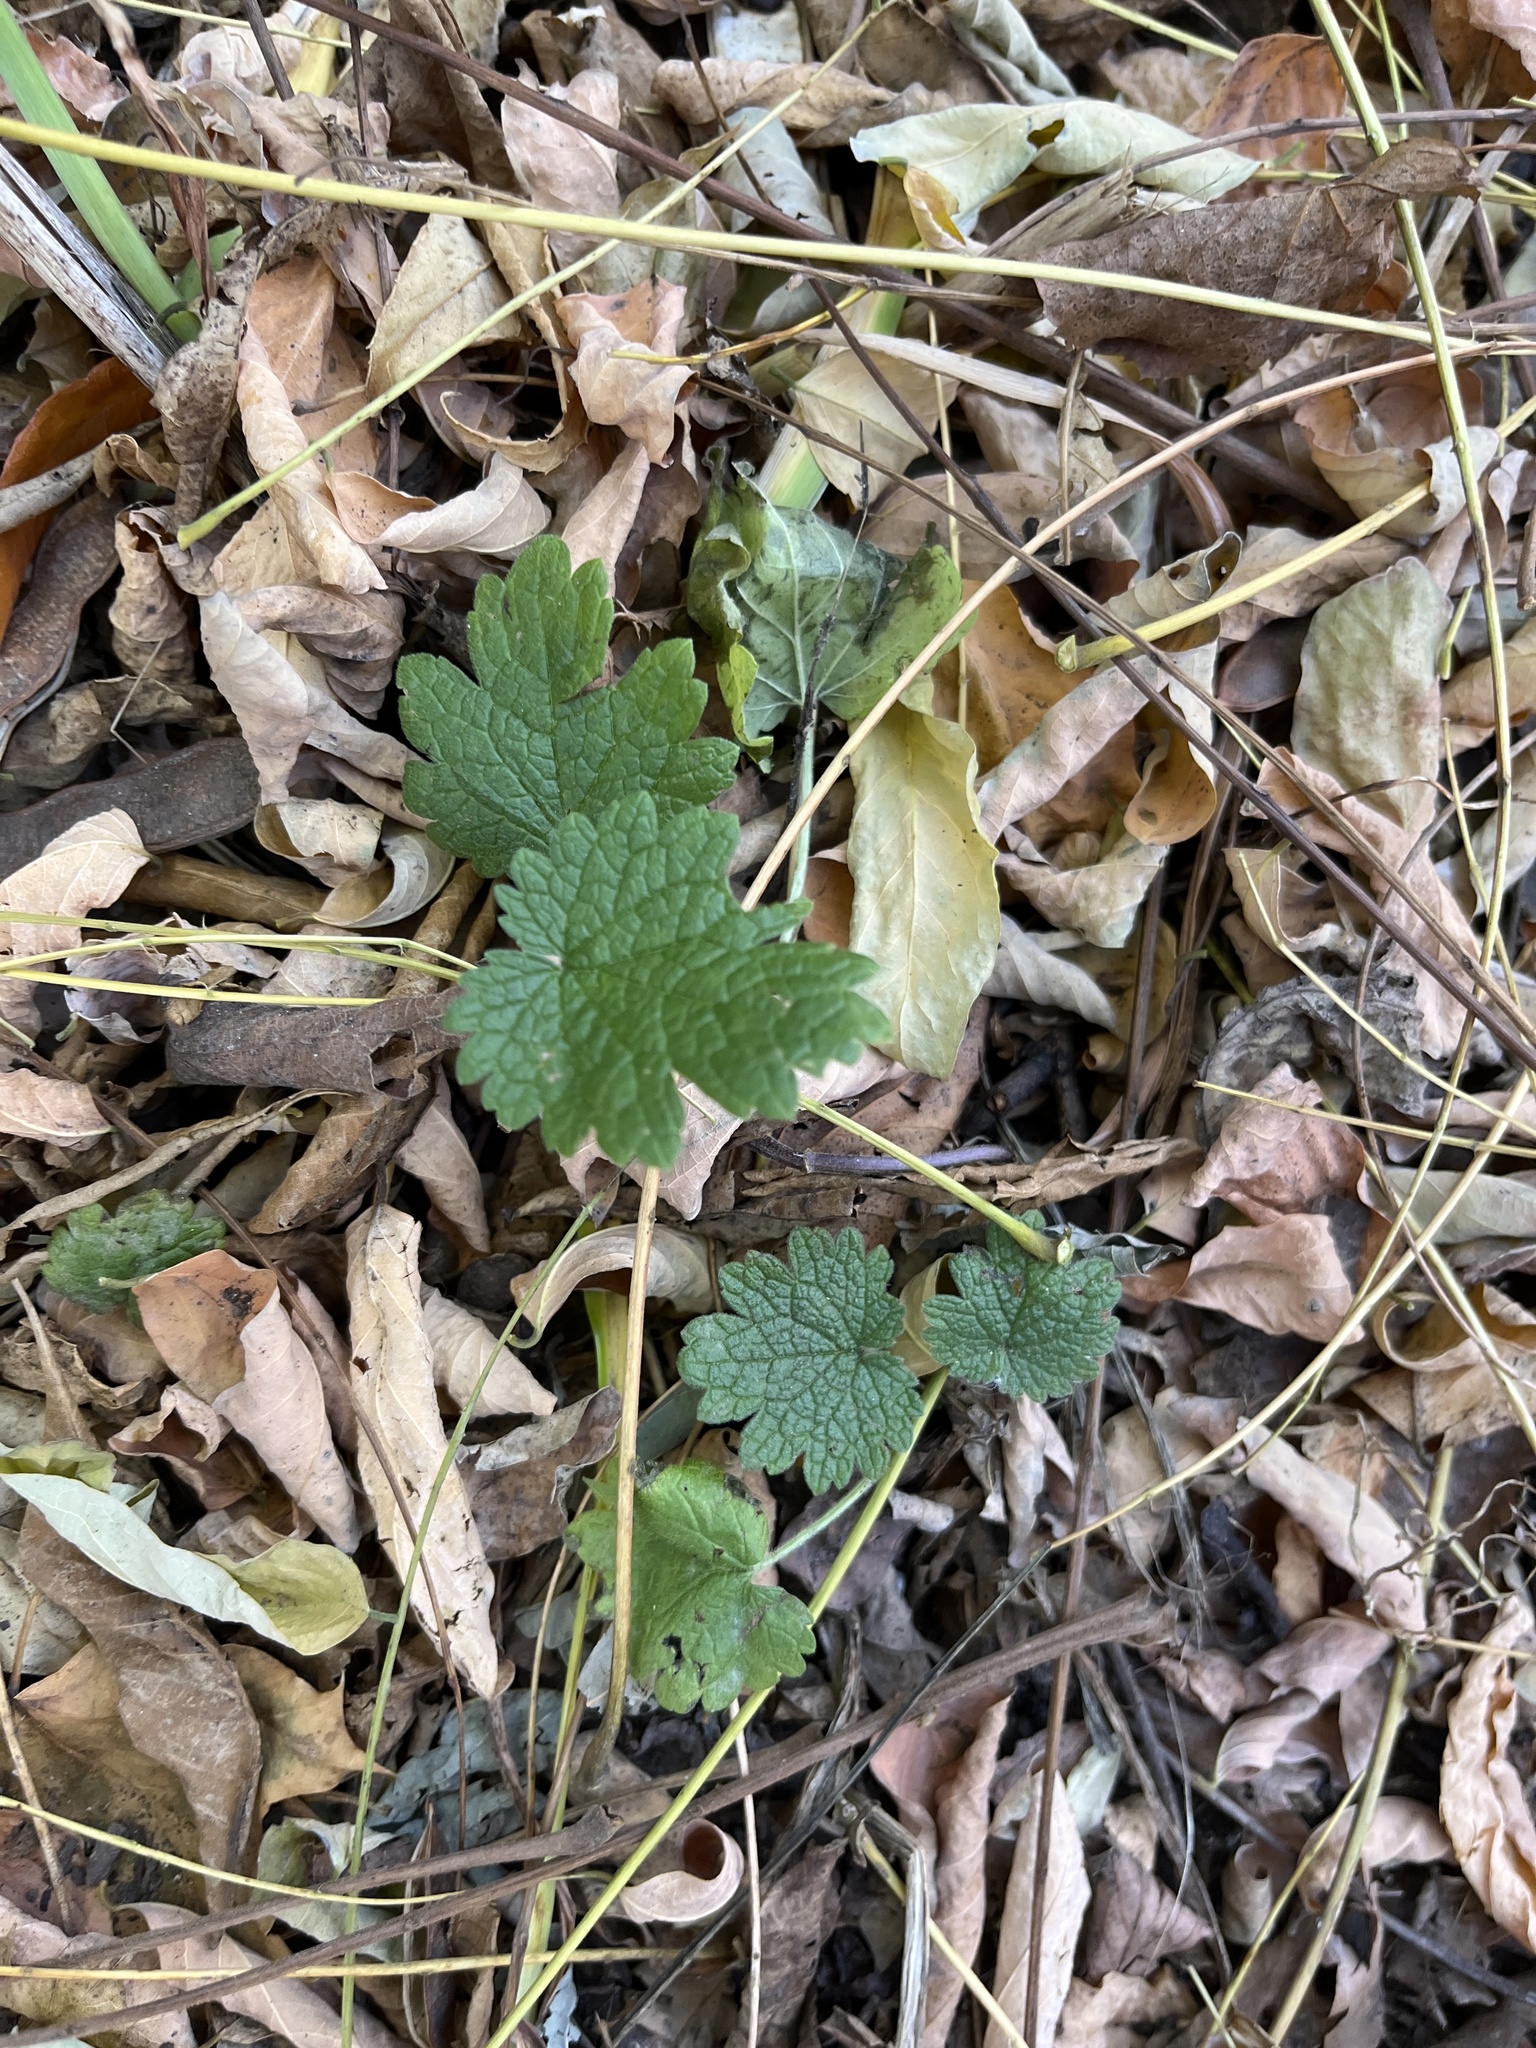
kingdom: Plantae
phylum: Tracheophyta
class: Magnoliopsida
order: Lamiales
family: Lamiaceae
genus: Leonurus
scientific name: Leonurus cardiaca
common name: Motherwort
